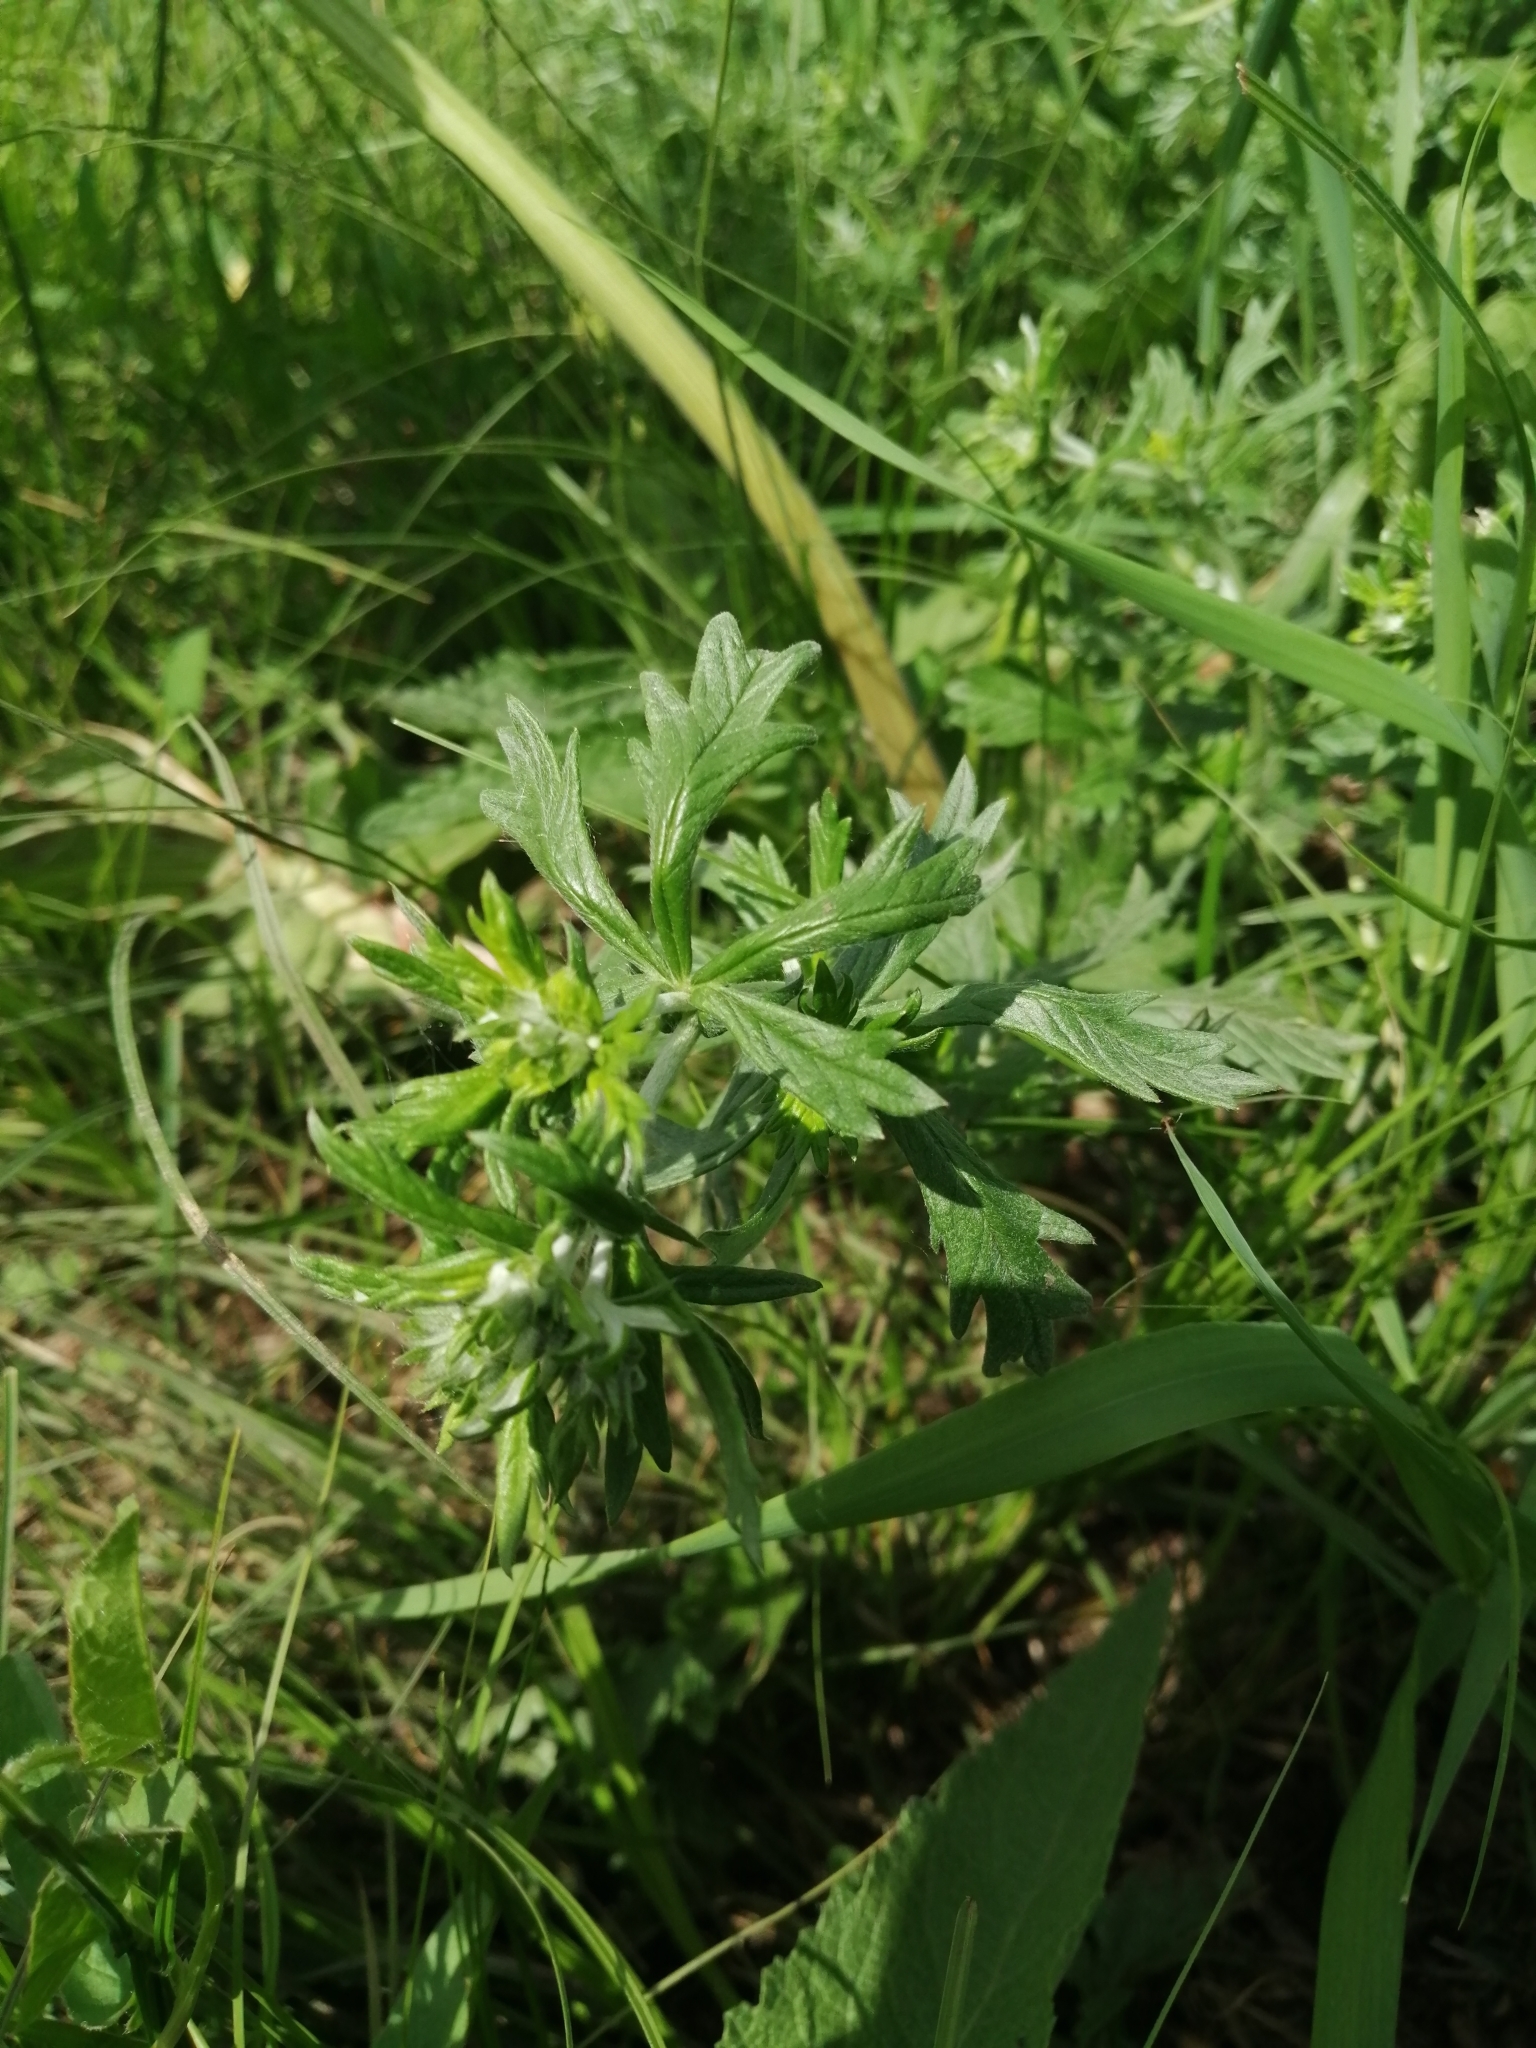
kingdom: Plantae
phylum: Tracheophyta
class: Magnoliopsida
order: Rosales
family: Rosaceae
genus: Potentilla
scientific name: Potentilla argentea
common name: Hoary cinquefoil
